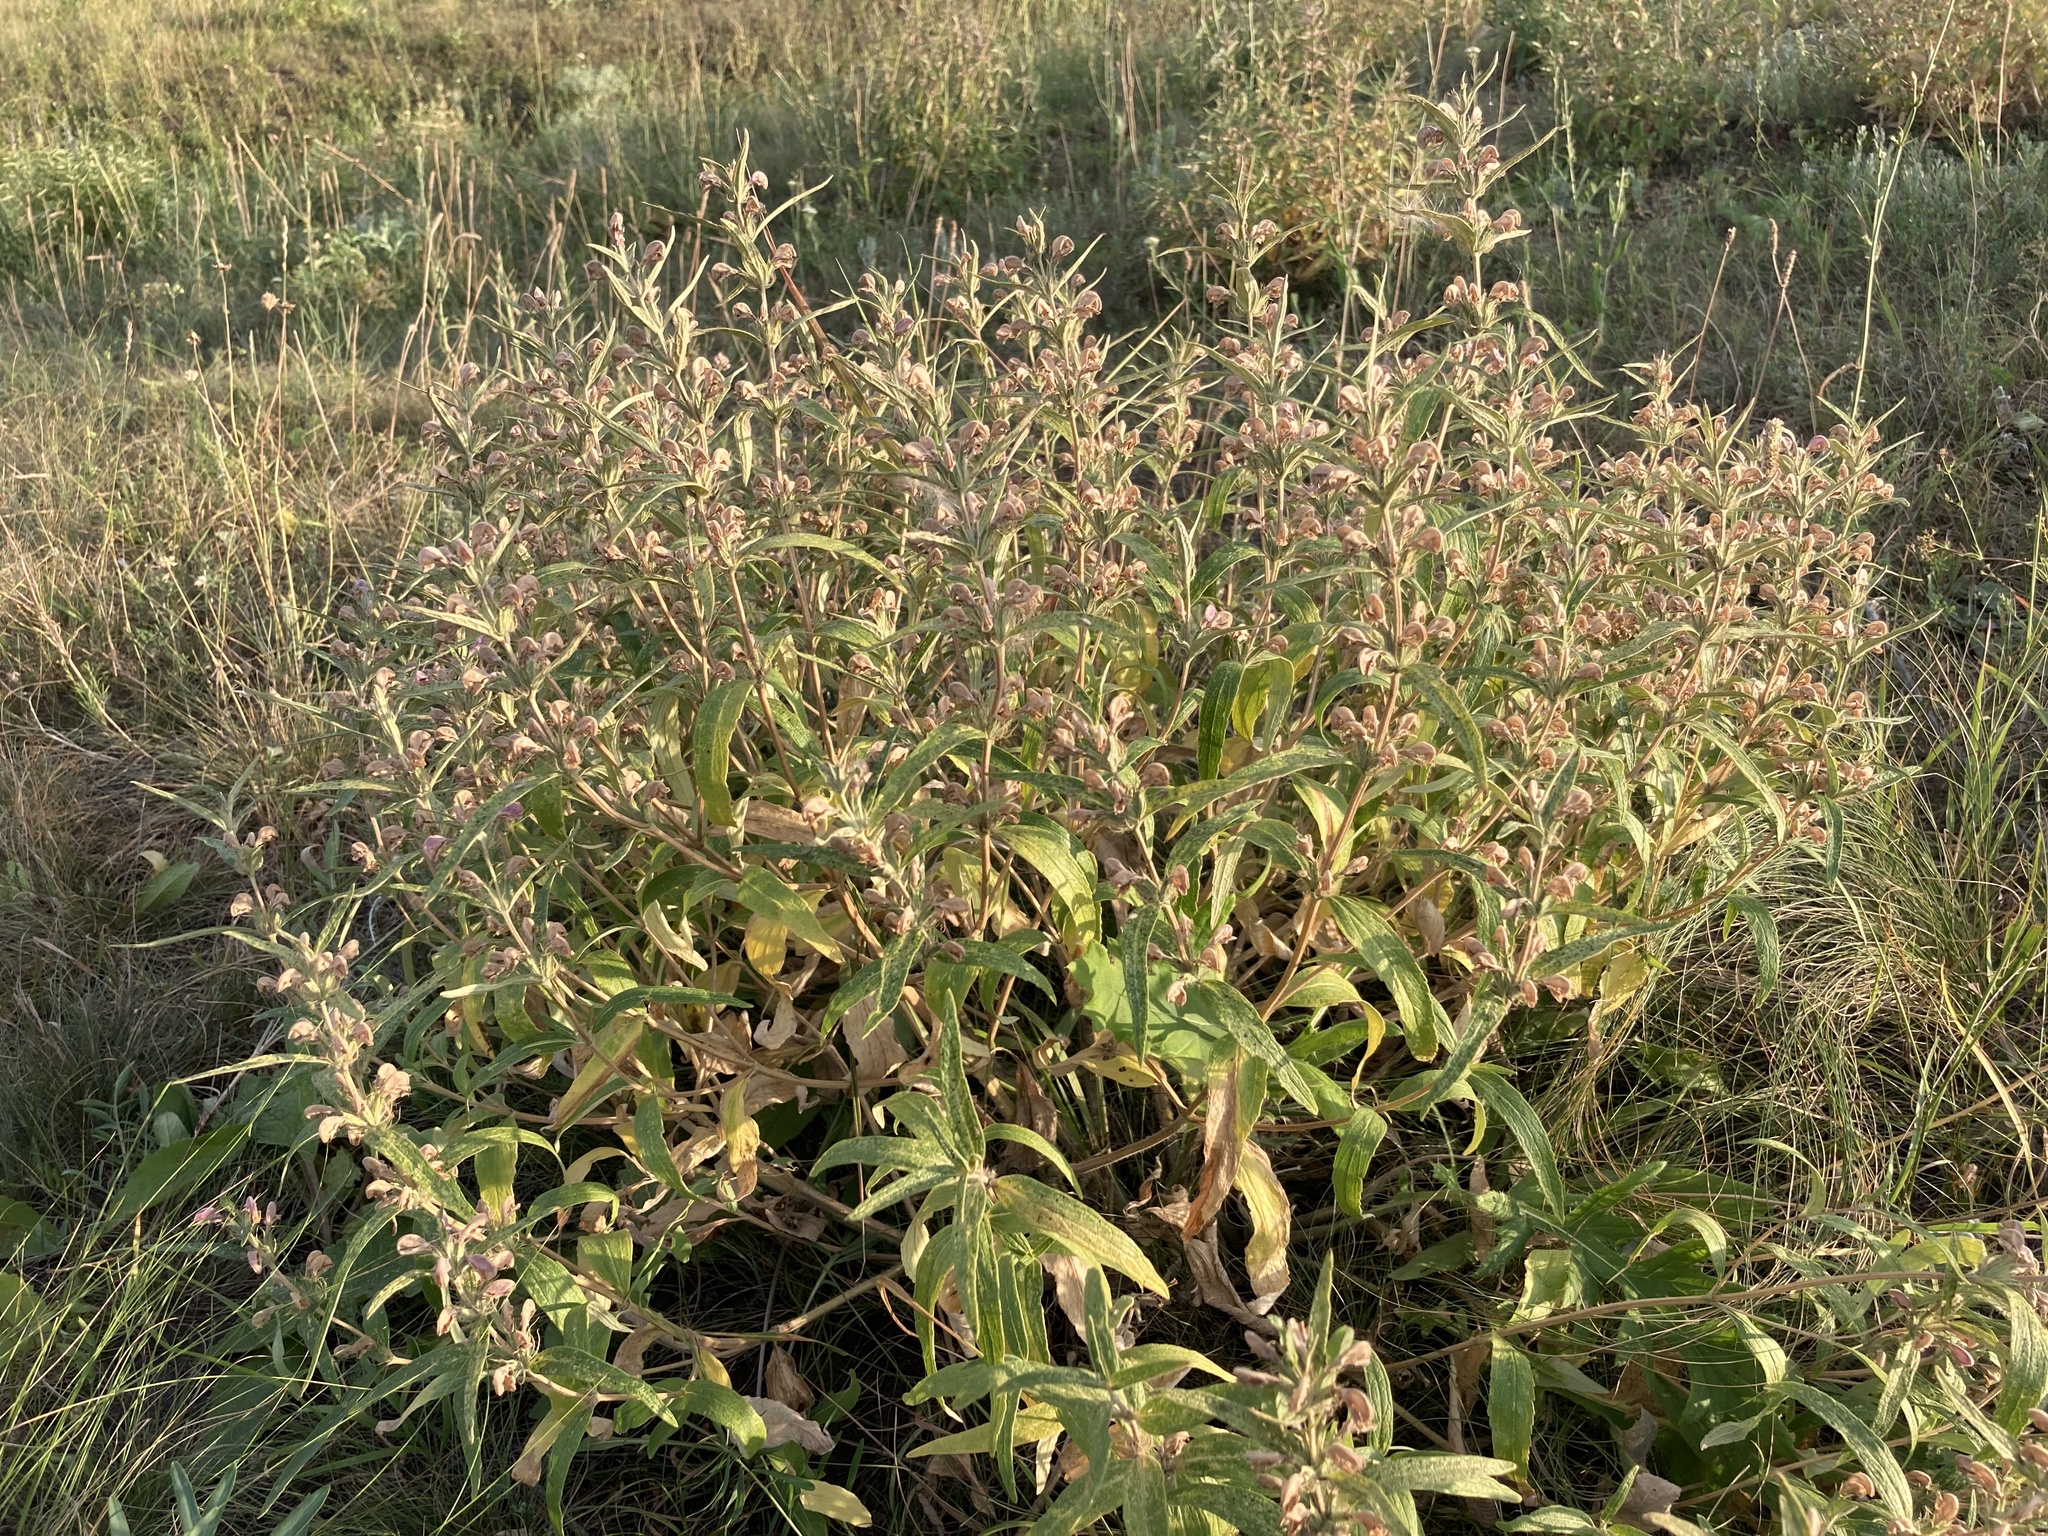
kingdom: Plantae
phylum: Tracheophyta
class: Magnoliopsida
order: Lamiales
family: Lamiaceae
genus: Phlomis
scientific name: Phlomis herba-venti
